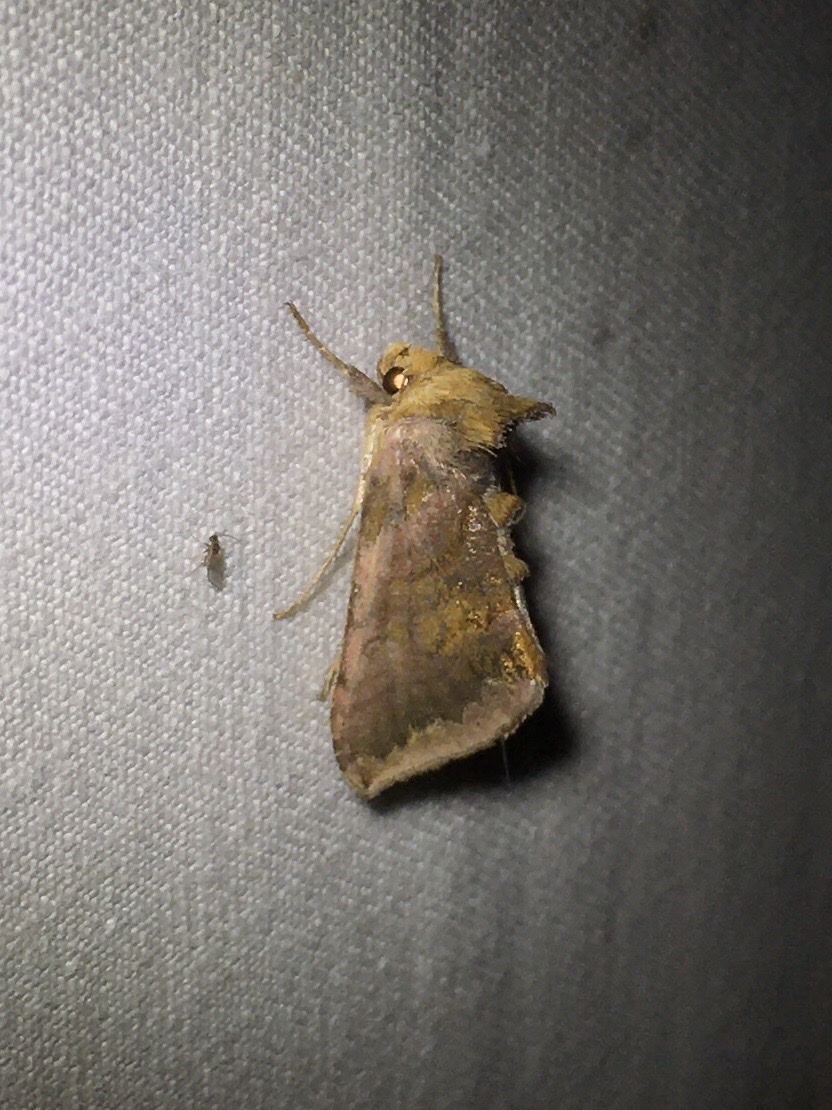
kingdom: Animalia
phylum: Arthropoda
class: Insecta
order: Lepidoptera
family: Noctuidae
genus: Allagrapha
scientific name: Allagrapha aerea
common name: Unspotted looper moth
